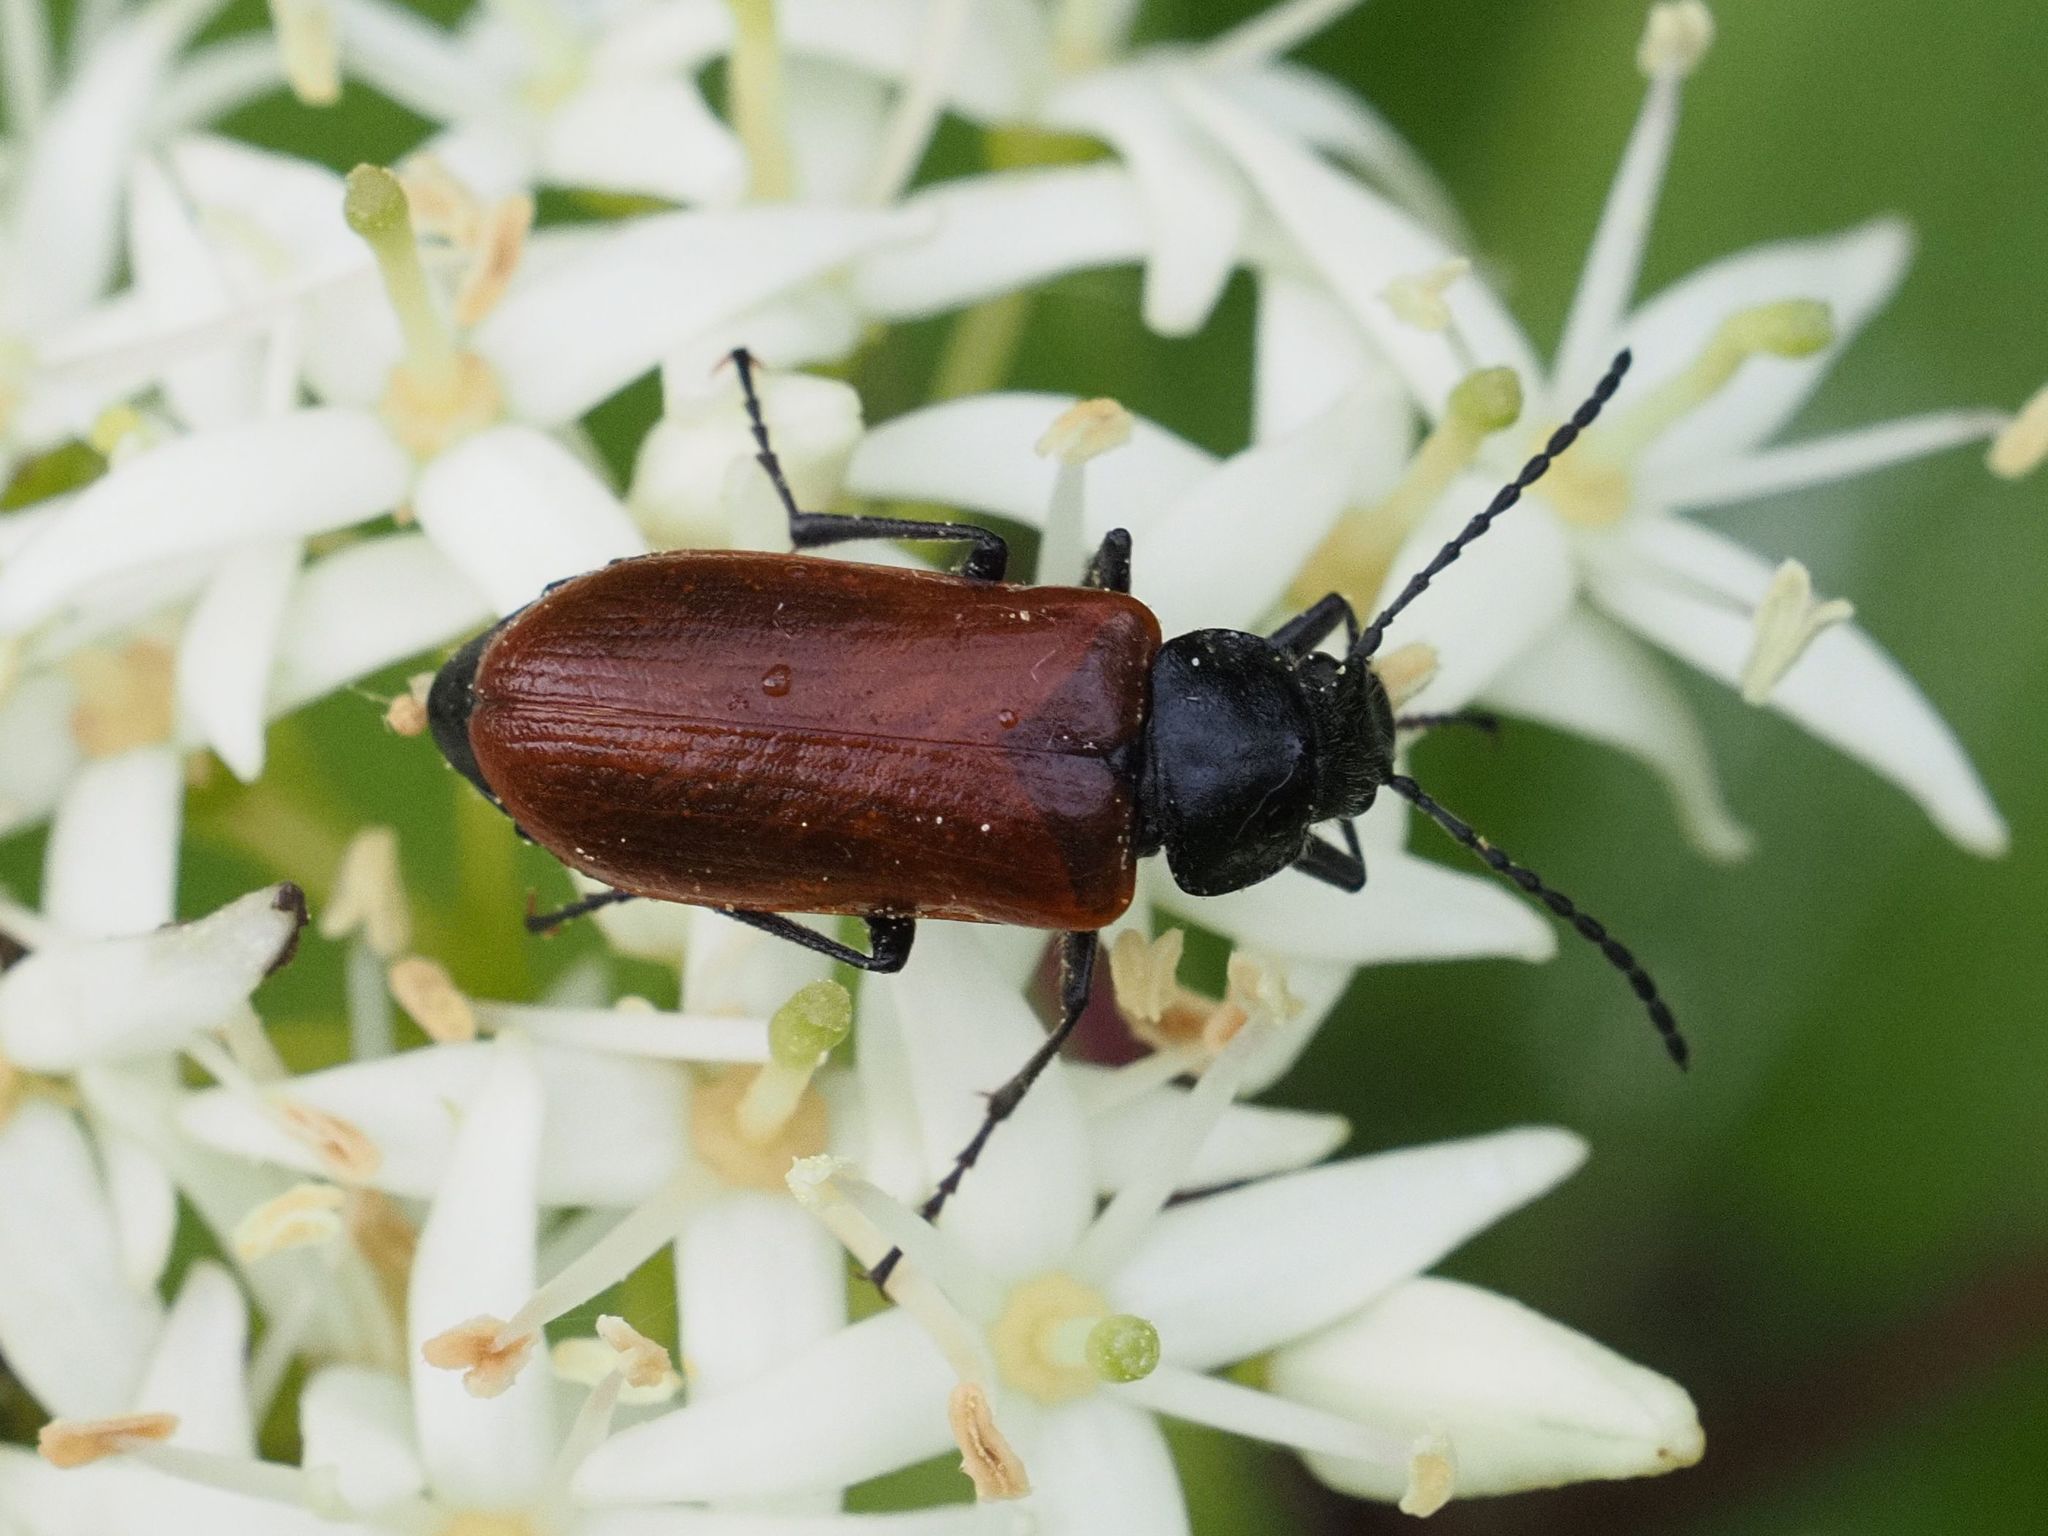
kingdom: Animalia
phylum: Arthropoda
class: Insecta
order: Coleoptera
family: Tenebrionidae
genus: Omophlus
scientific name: Omophlus lepturoides
